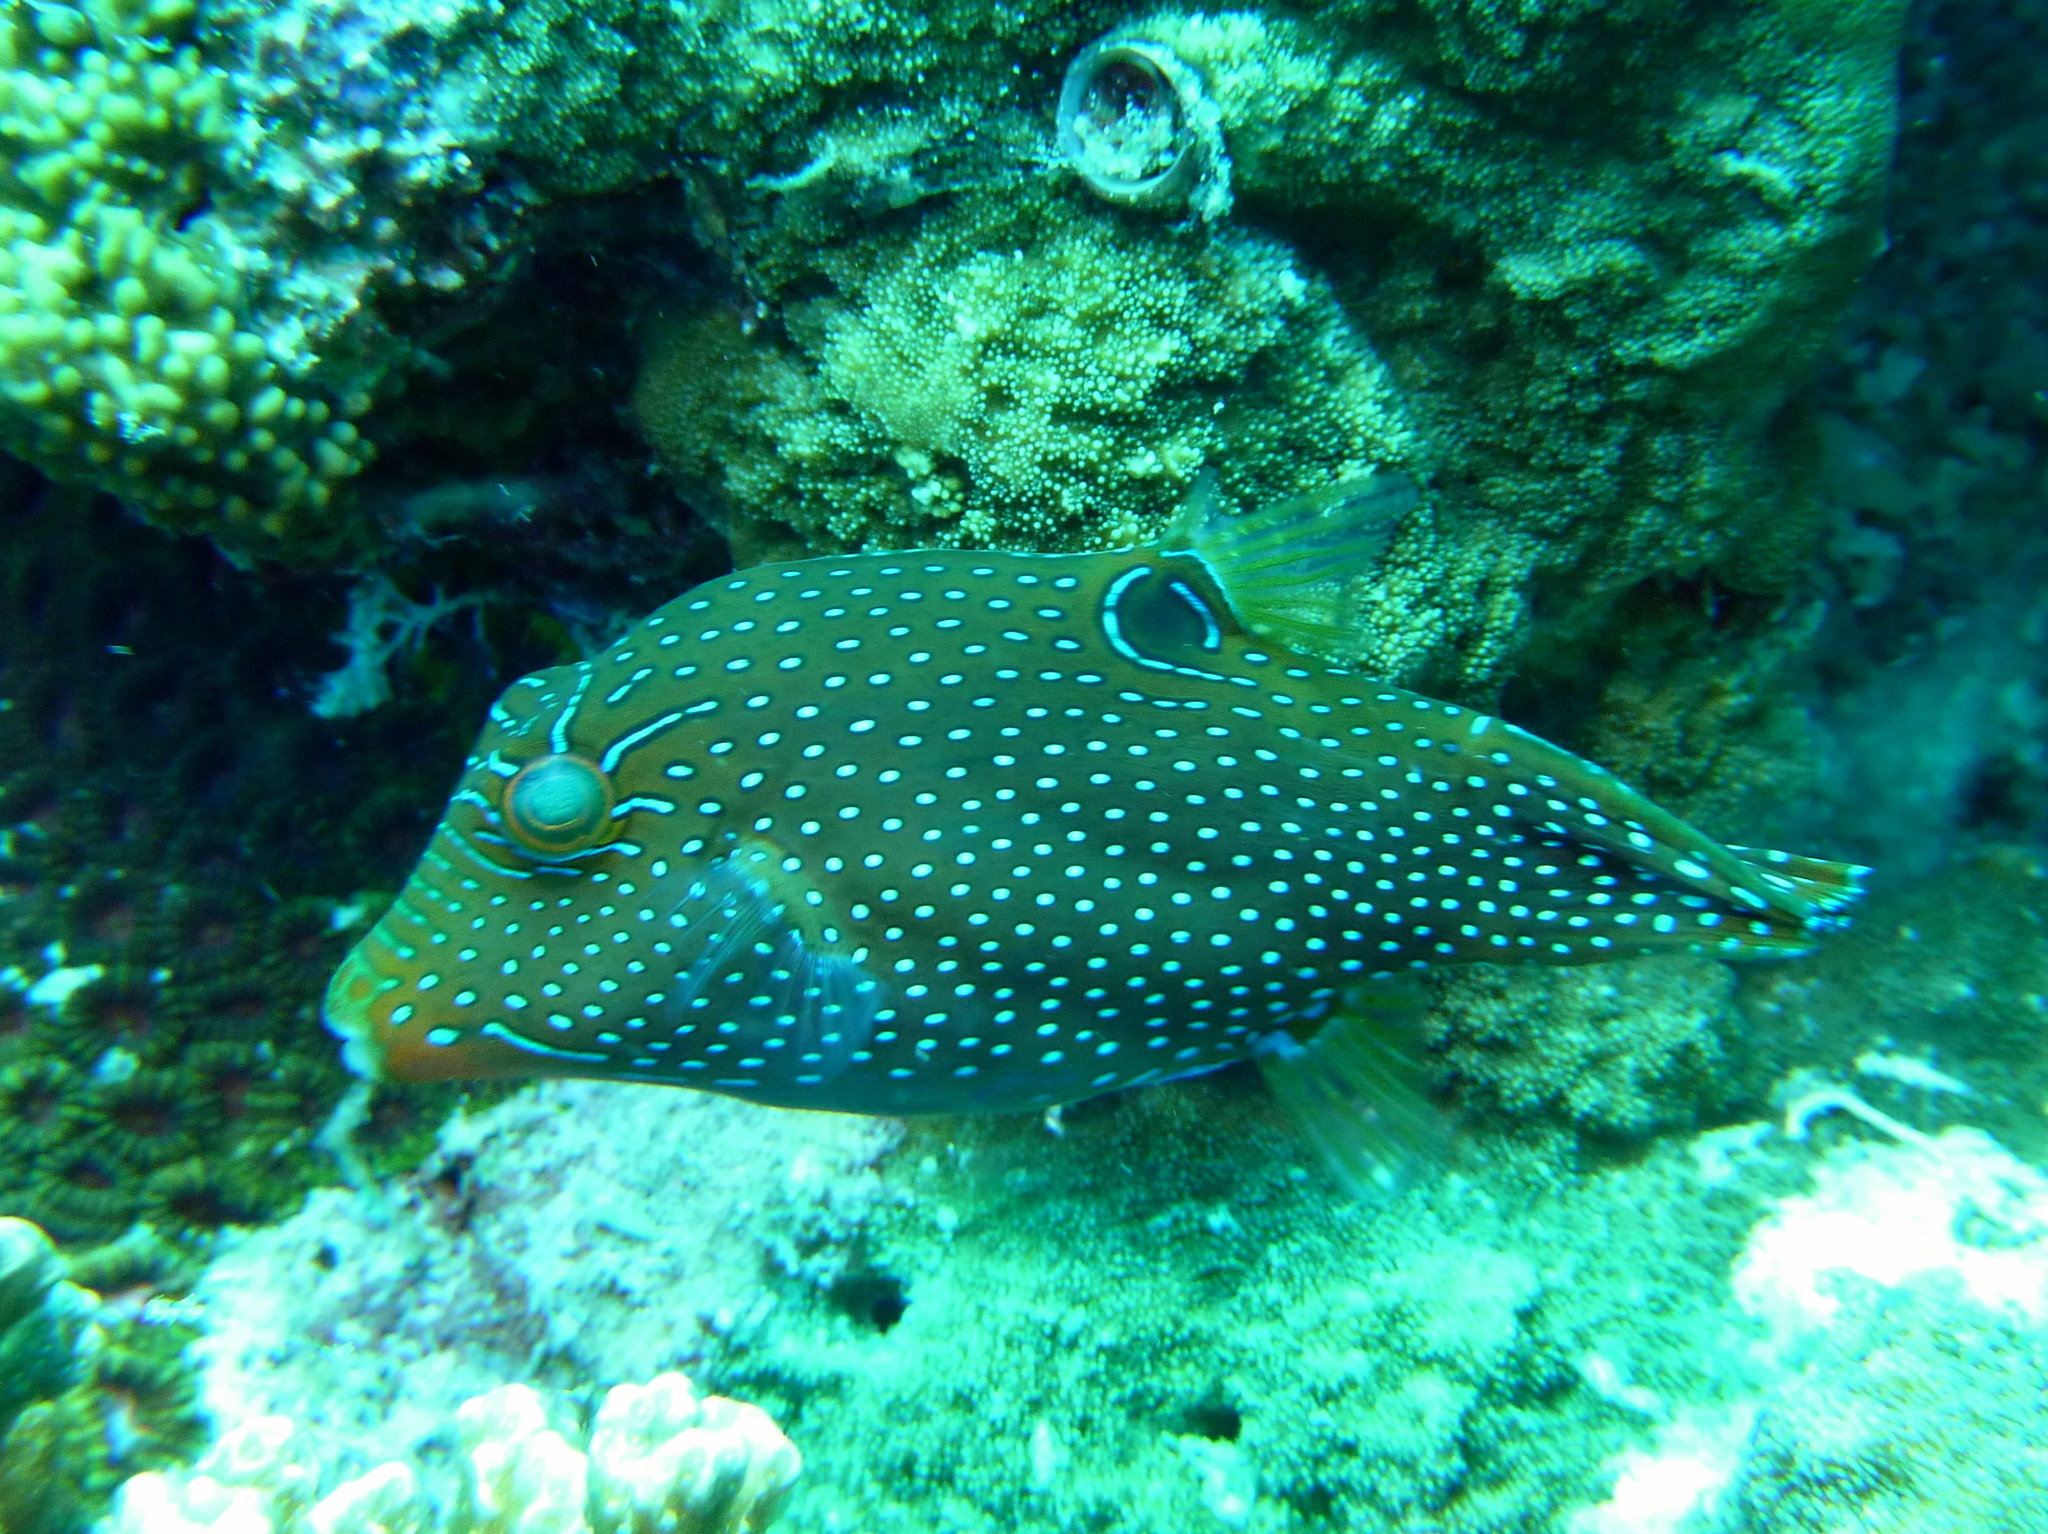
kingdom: Animalia
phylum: Chordata
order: Tetraodontiformes
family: Tetraodontidae
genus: Canthigaster
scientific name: Canthigaster papua
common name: False-eyed pufferfish
